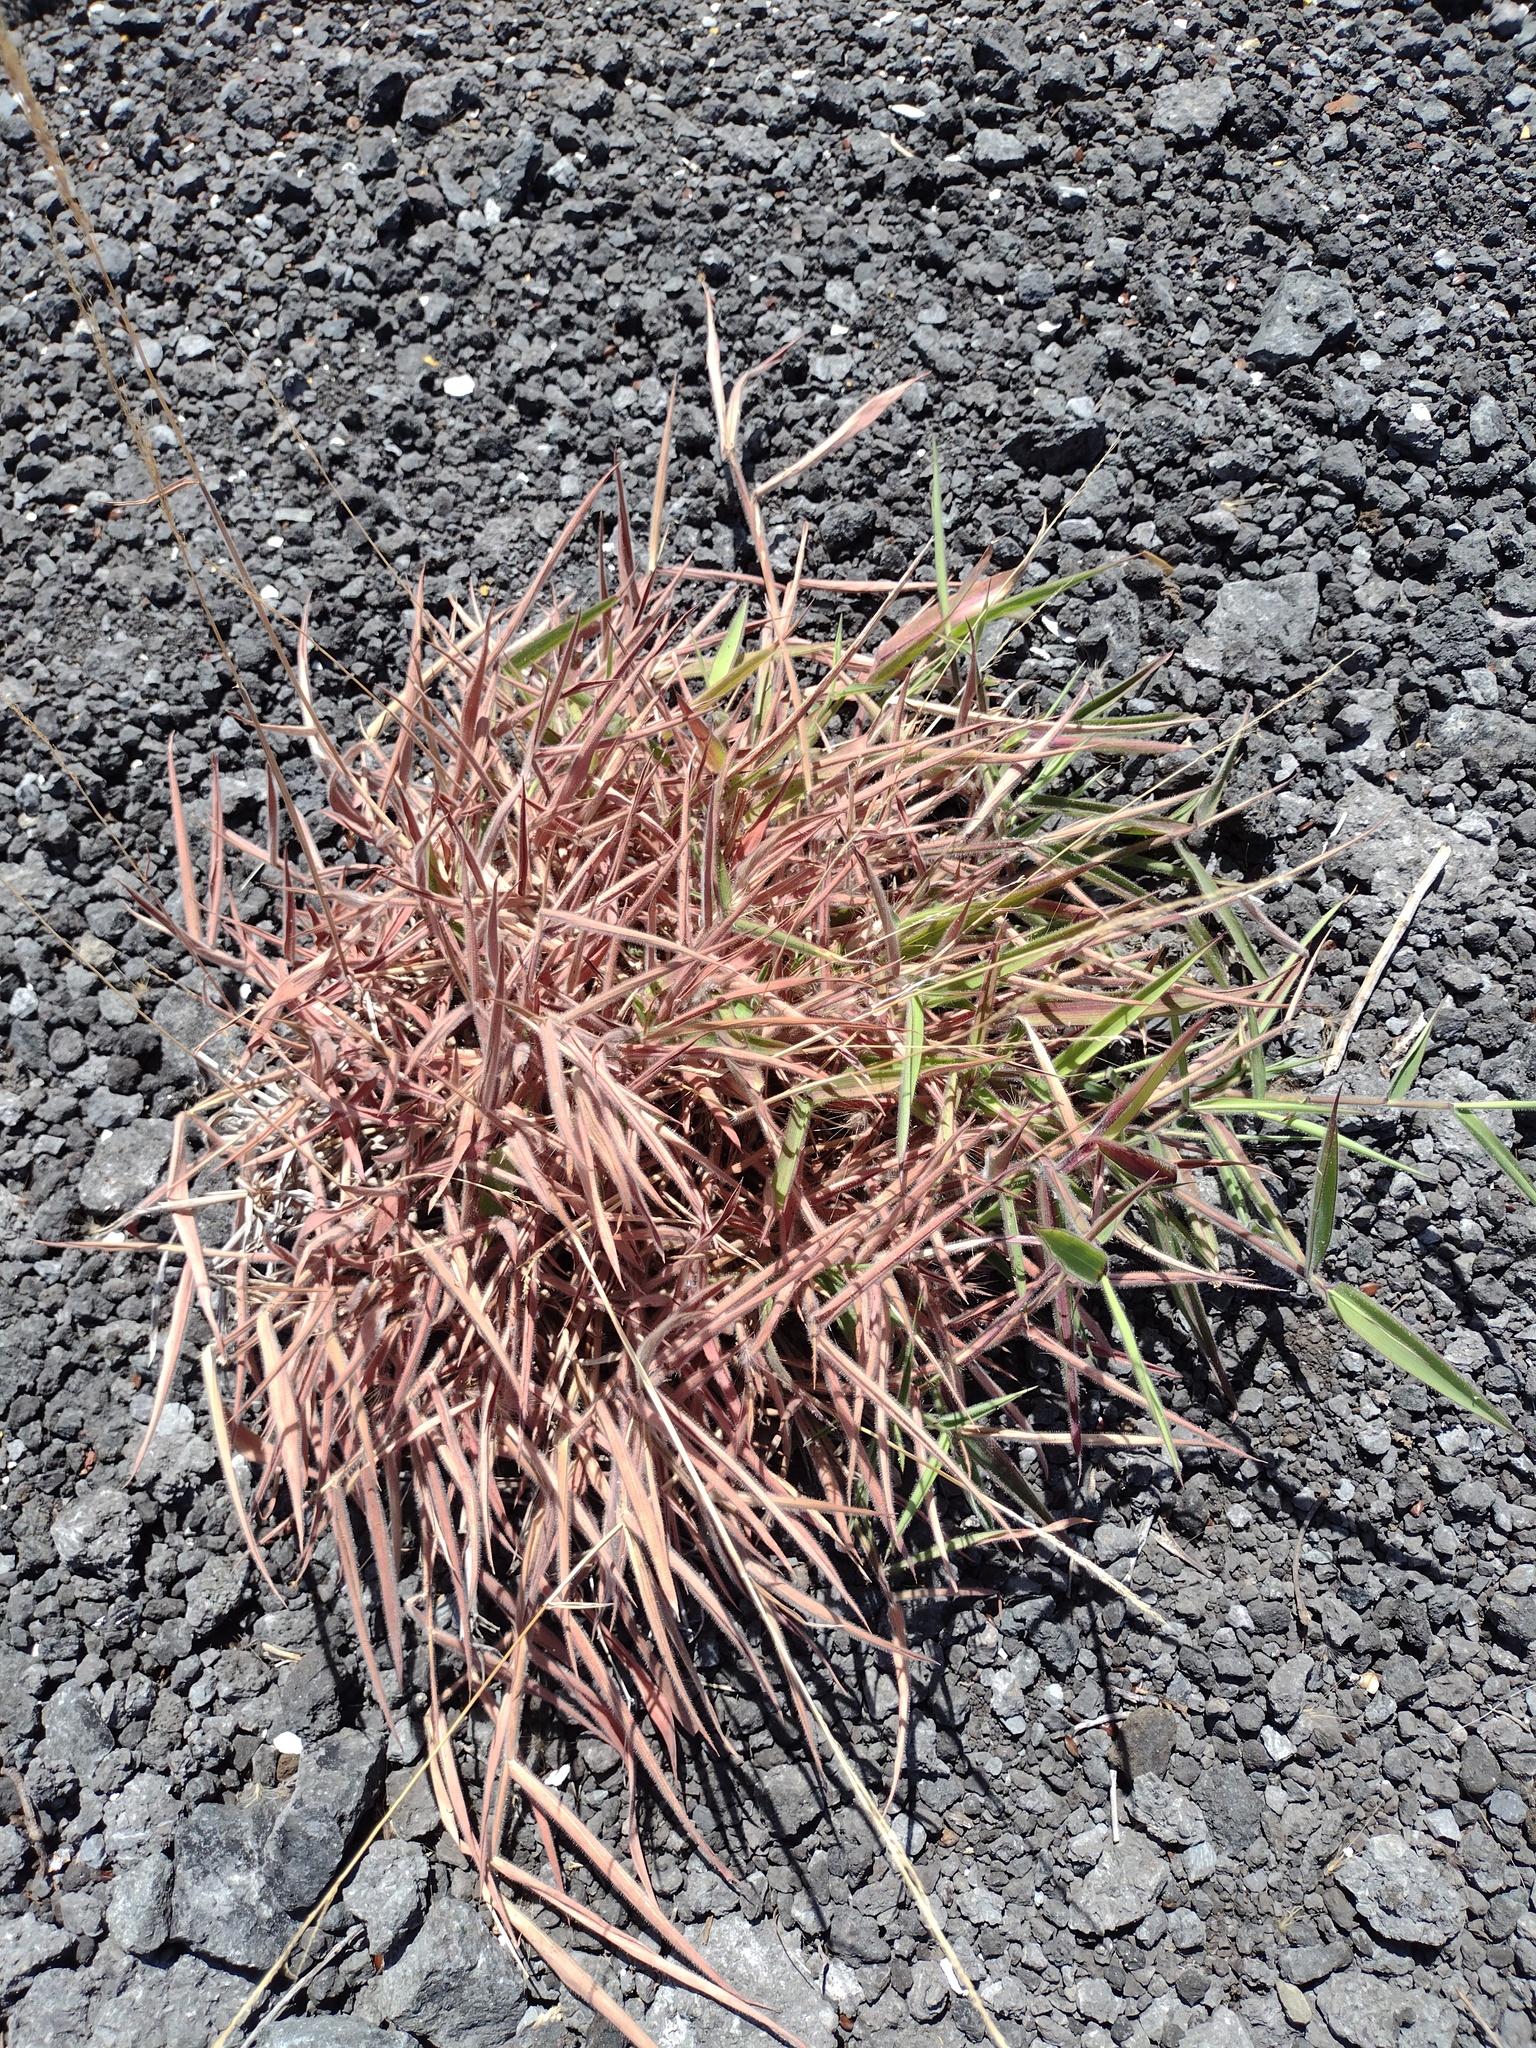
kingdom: Plantae
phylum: Tracheophyta
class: Liliopsida
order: Poales
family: Poaceae
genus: Melinis
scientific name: Melinis minutiflora
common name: Molassesgrass
